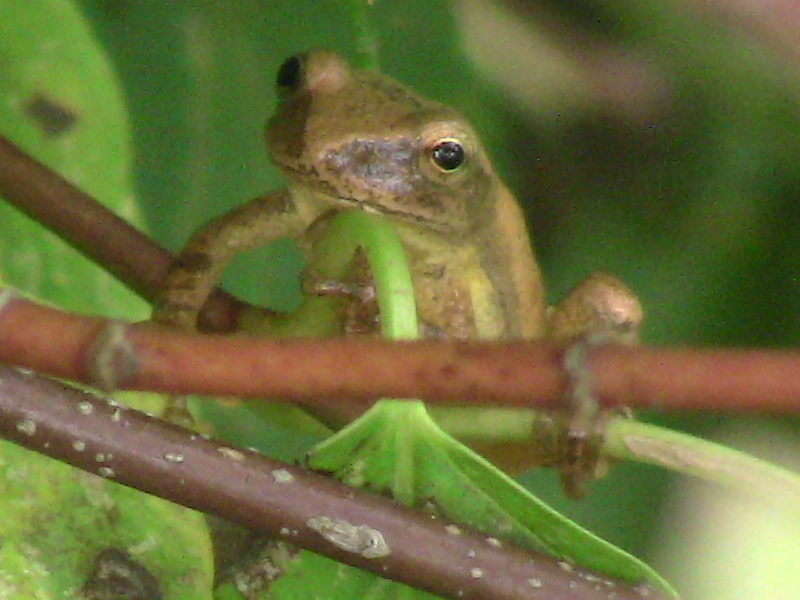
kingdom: Animalia
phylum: Chordata
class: Amphibia
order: Anura
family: Hylidae
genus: Pseudacris
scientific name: Pseudacris crucifer
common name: Spring peeper
